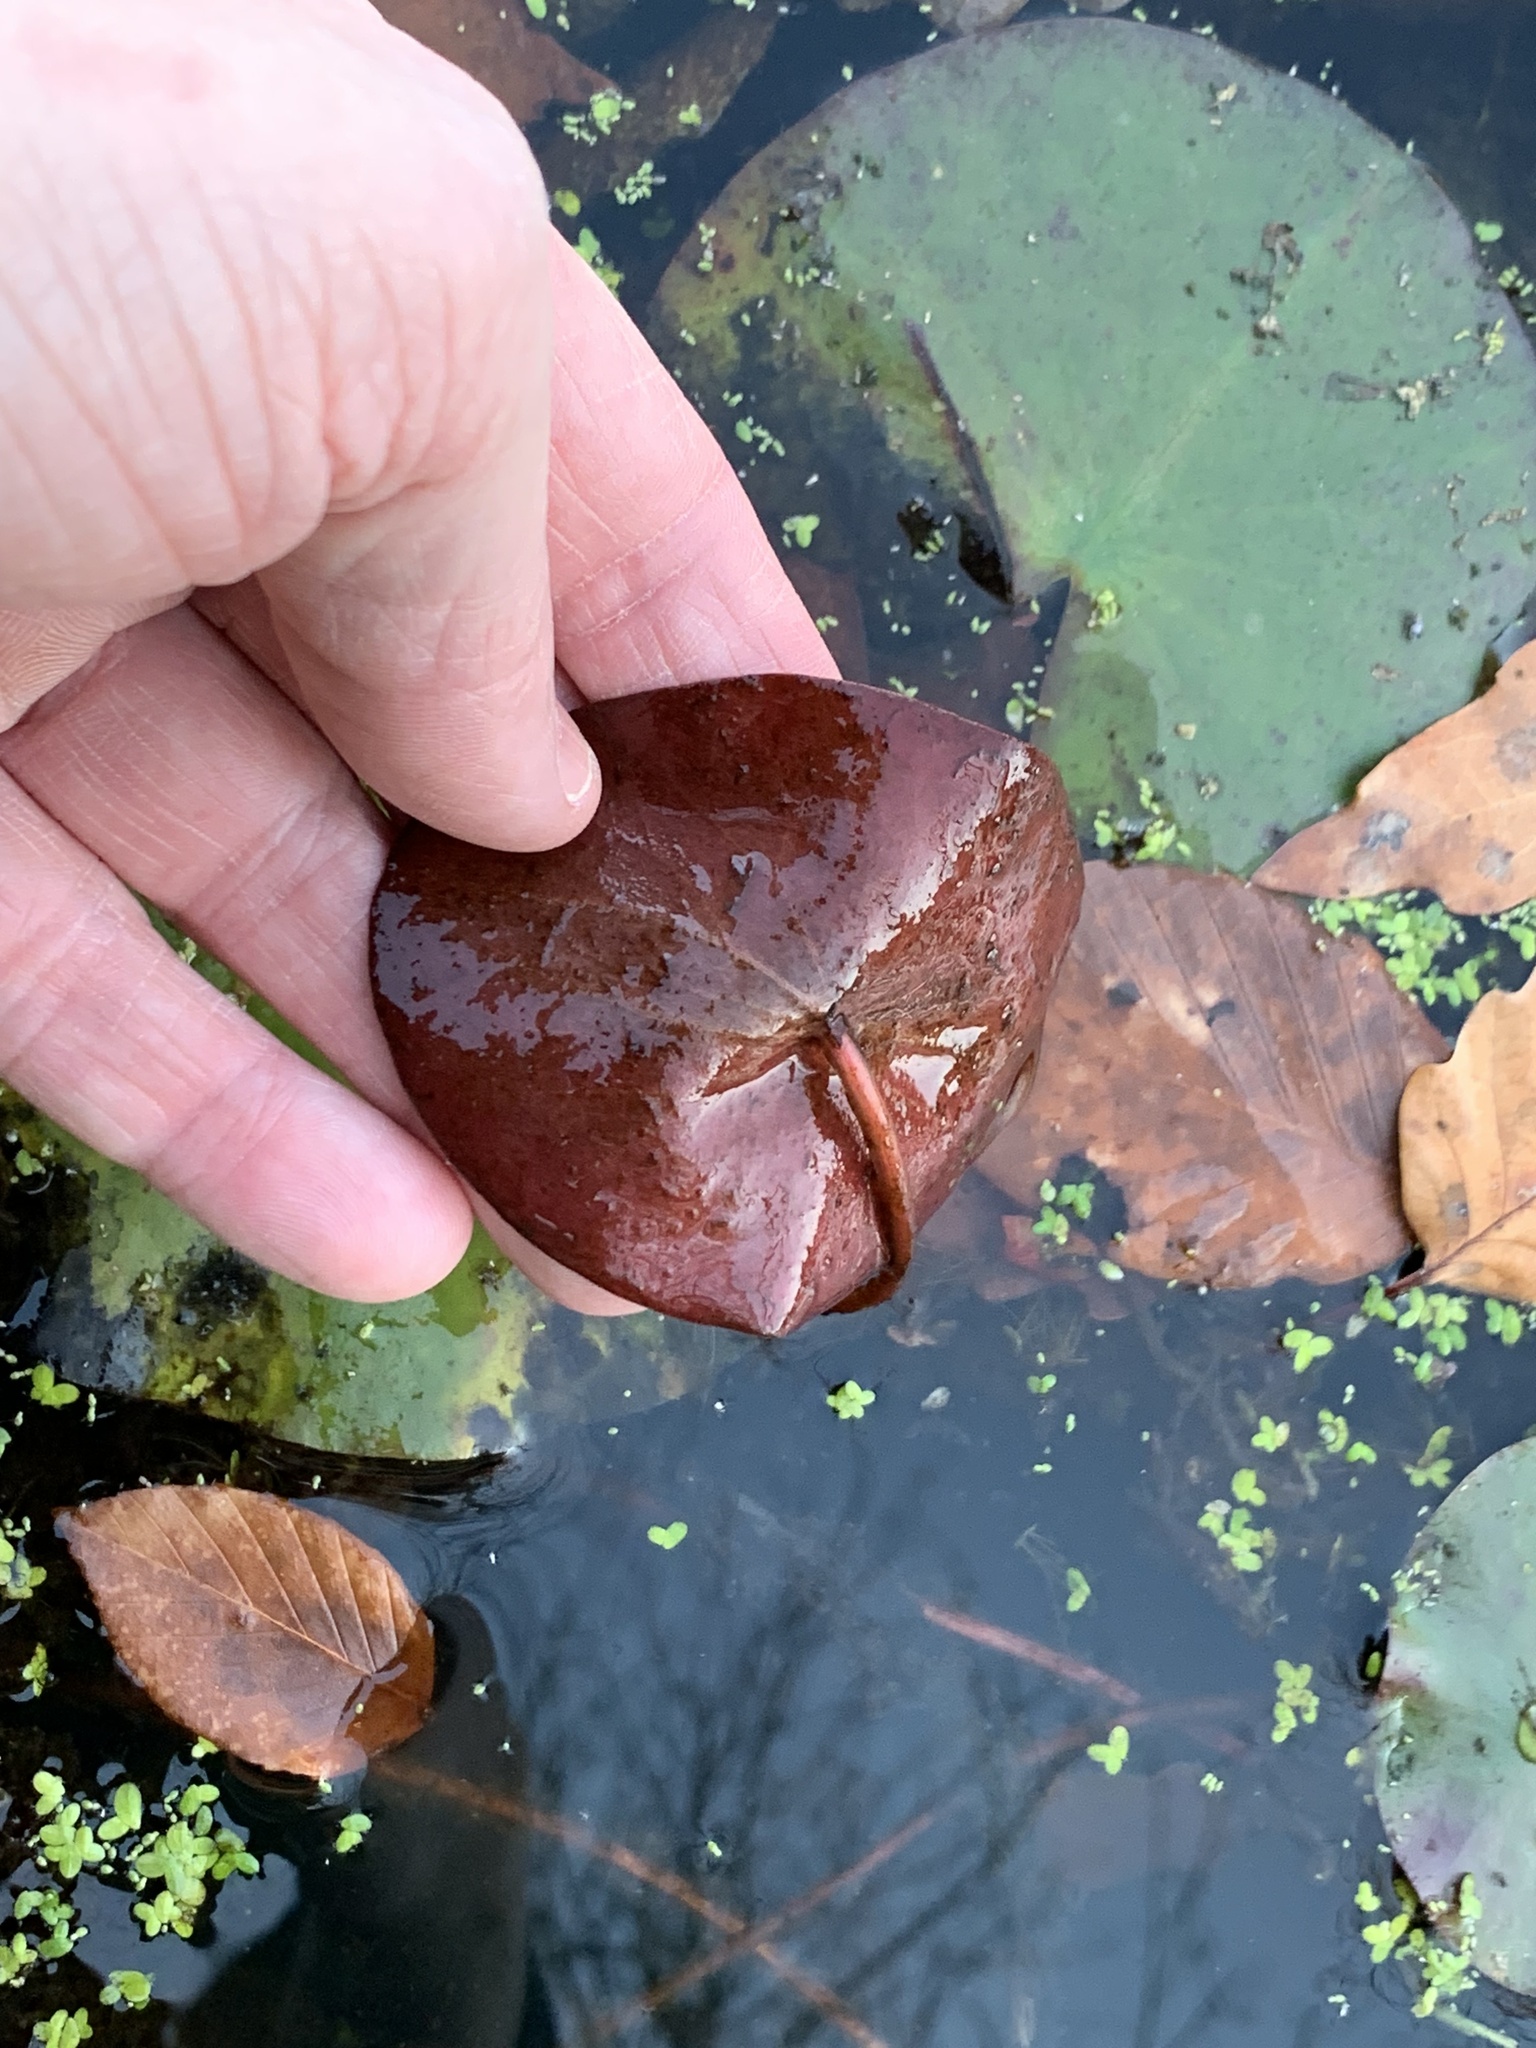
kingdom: Plantae
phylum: Tracheophyta
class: Magnoliopsida
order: Nymphaeales
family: Cabombaceae
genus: Brasenia
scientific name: Brasenia schreberi
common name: Water-shield
